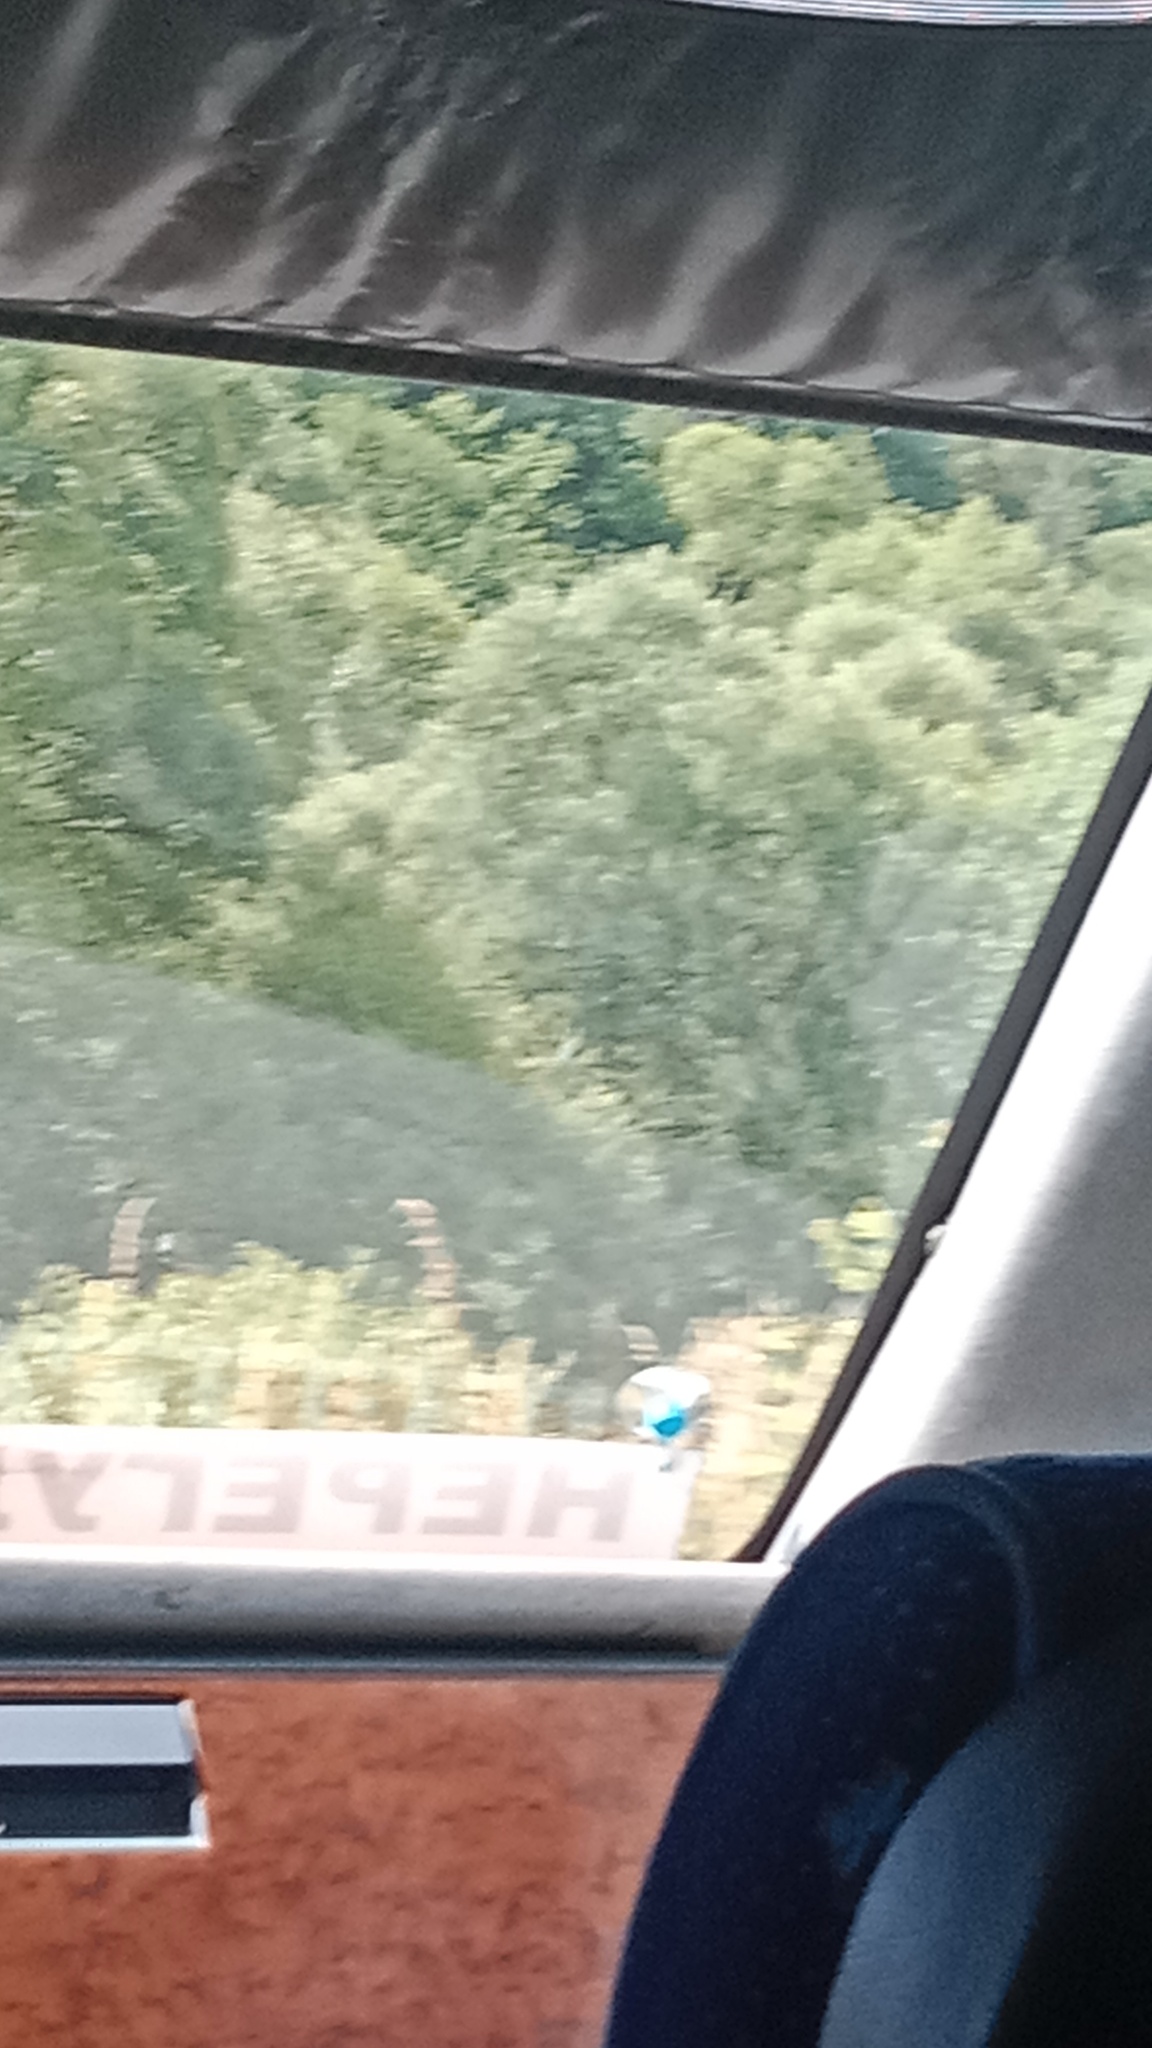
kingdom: Plantae
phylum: Tracheophyta
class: Magnoliopsida
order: Apiales
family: Apiaceae
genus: Heracleum
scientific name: Heracleum sosnowskyi
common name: Sosnowsky's hogweed
